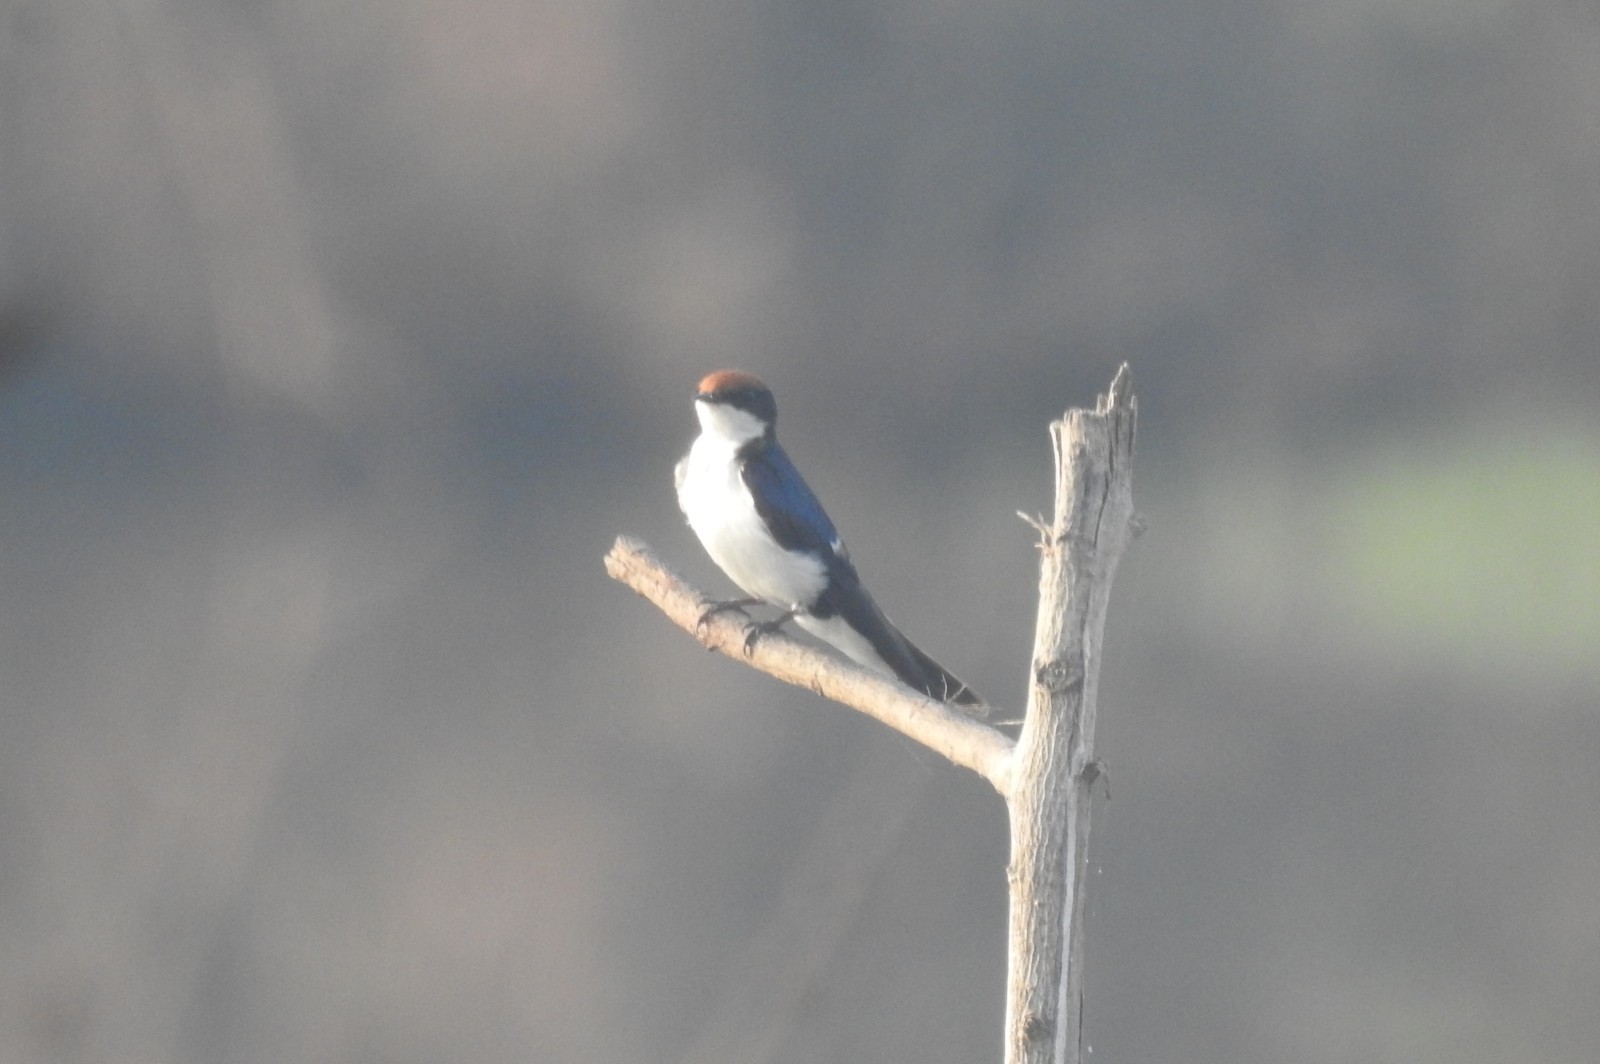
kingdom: Animalia
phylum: Chordata
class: Aves
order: Passeriformes
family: Hirundinidae
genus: Hirundo
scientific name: Hirundo smithii
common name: Wire-tailed swallow
